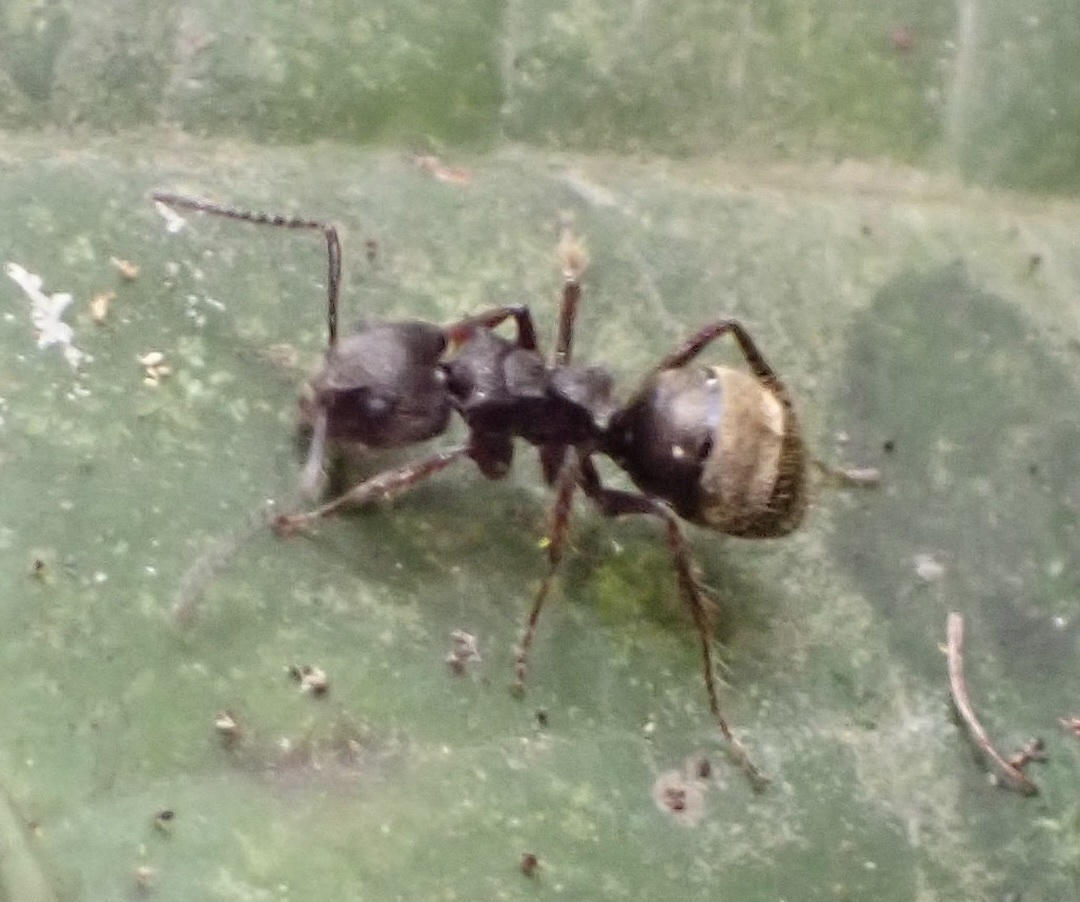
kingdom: Animalia
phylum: Arthropoda
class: Insecta
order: Hymenoptera
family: Formicidae
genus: Dolichoderus
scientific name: Dolichoderus bispinosus
